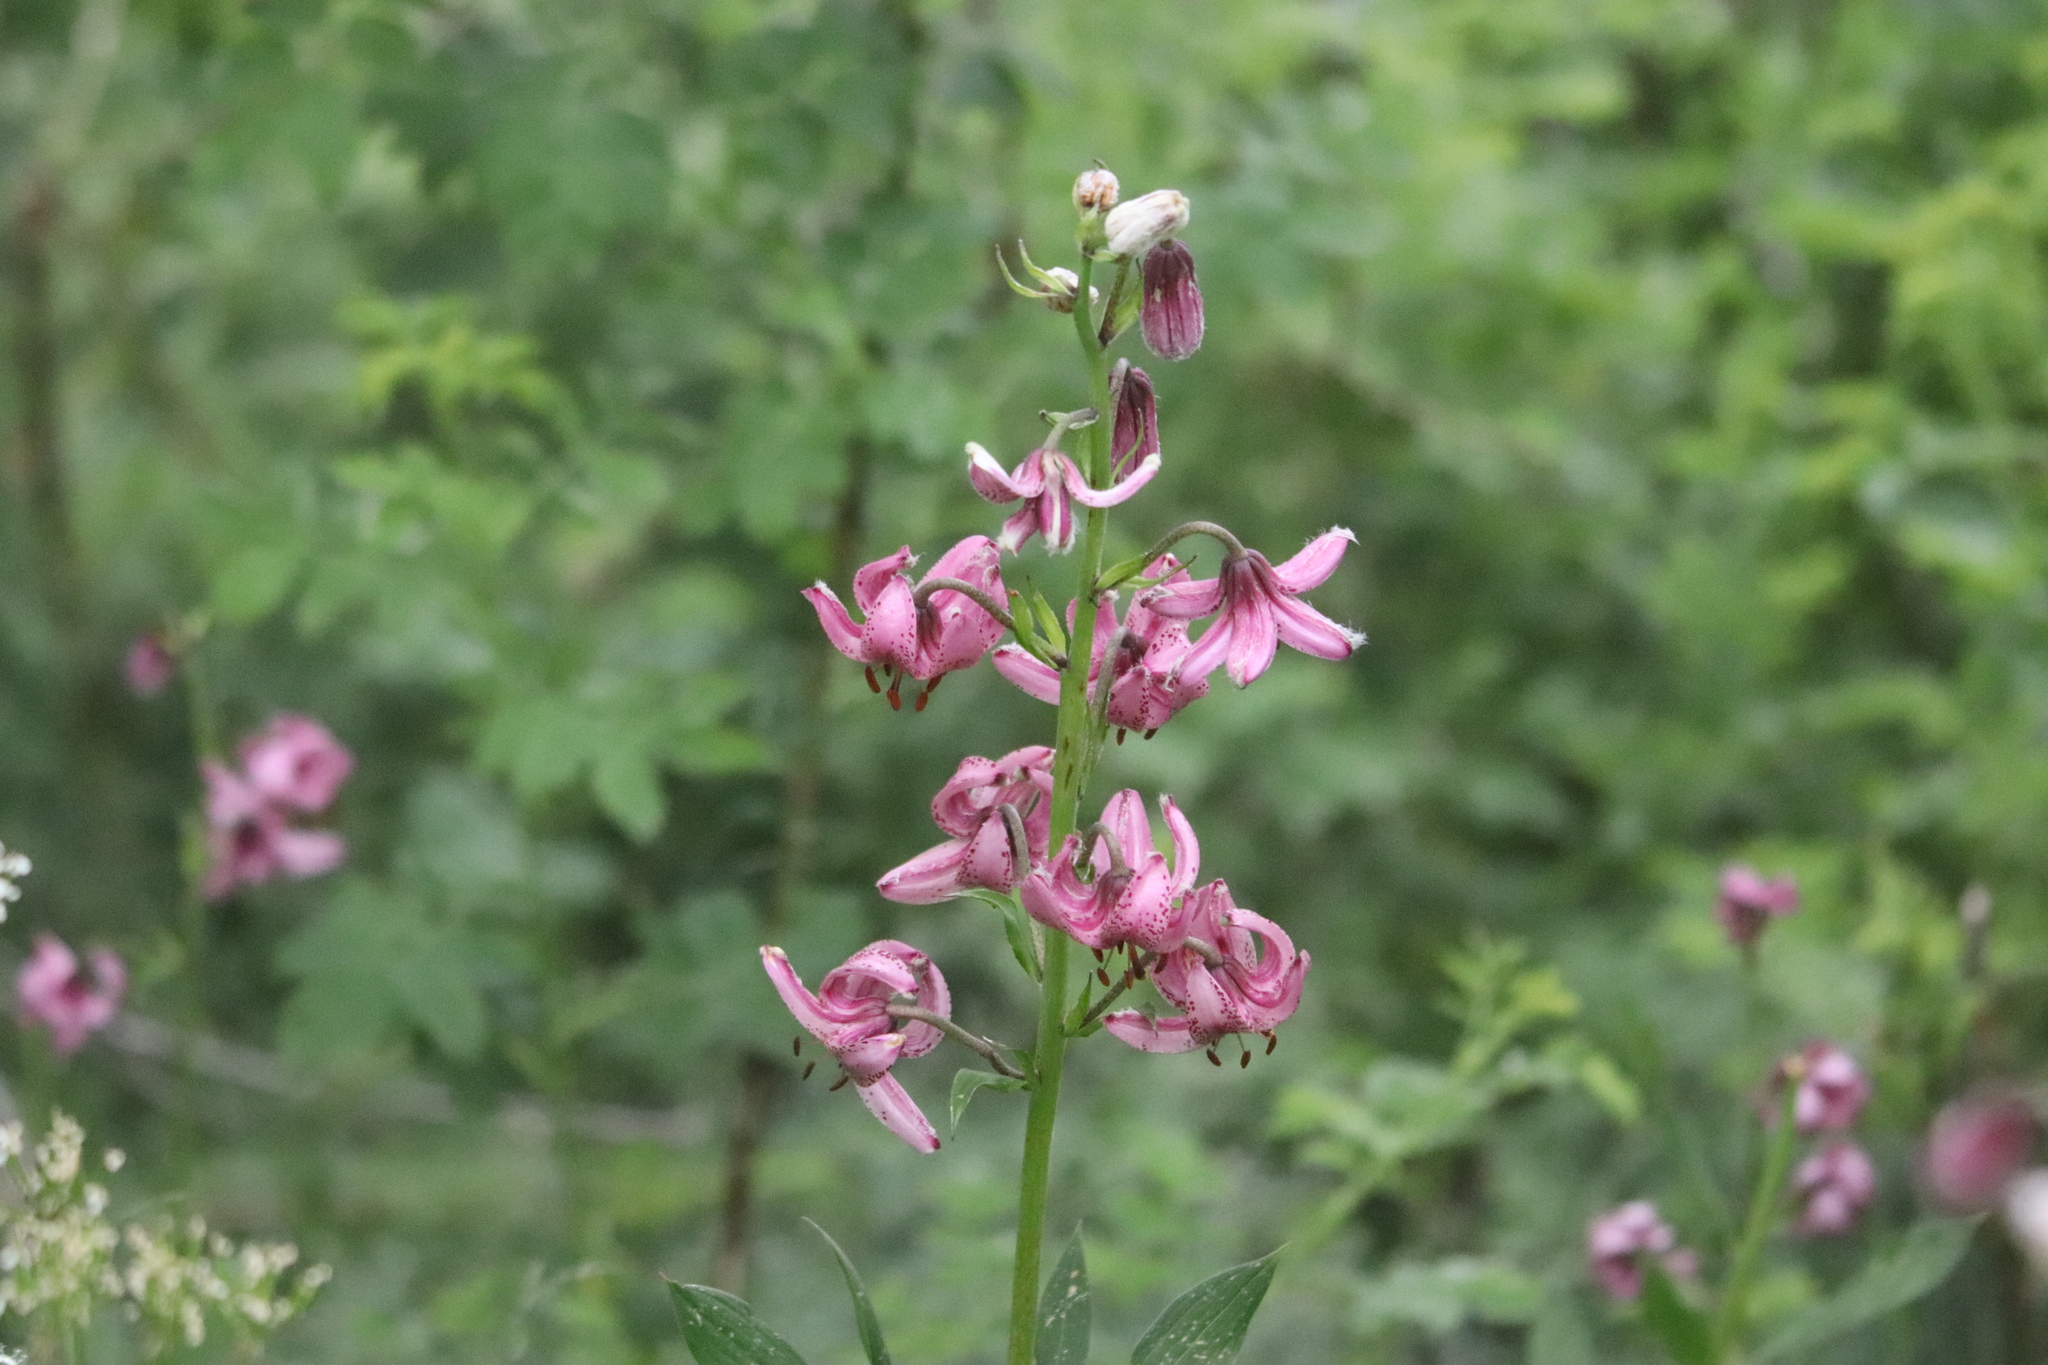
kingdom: Plantae
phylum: Tracheophyta
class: Liliopsida
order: Liliales
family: Liliaceae
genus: Lilium
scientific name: Lilium martagon
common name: Martagon lily
